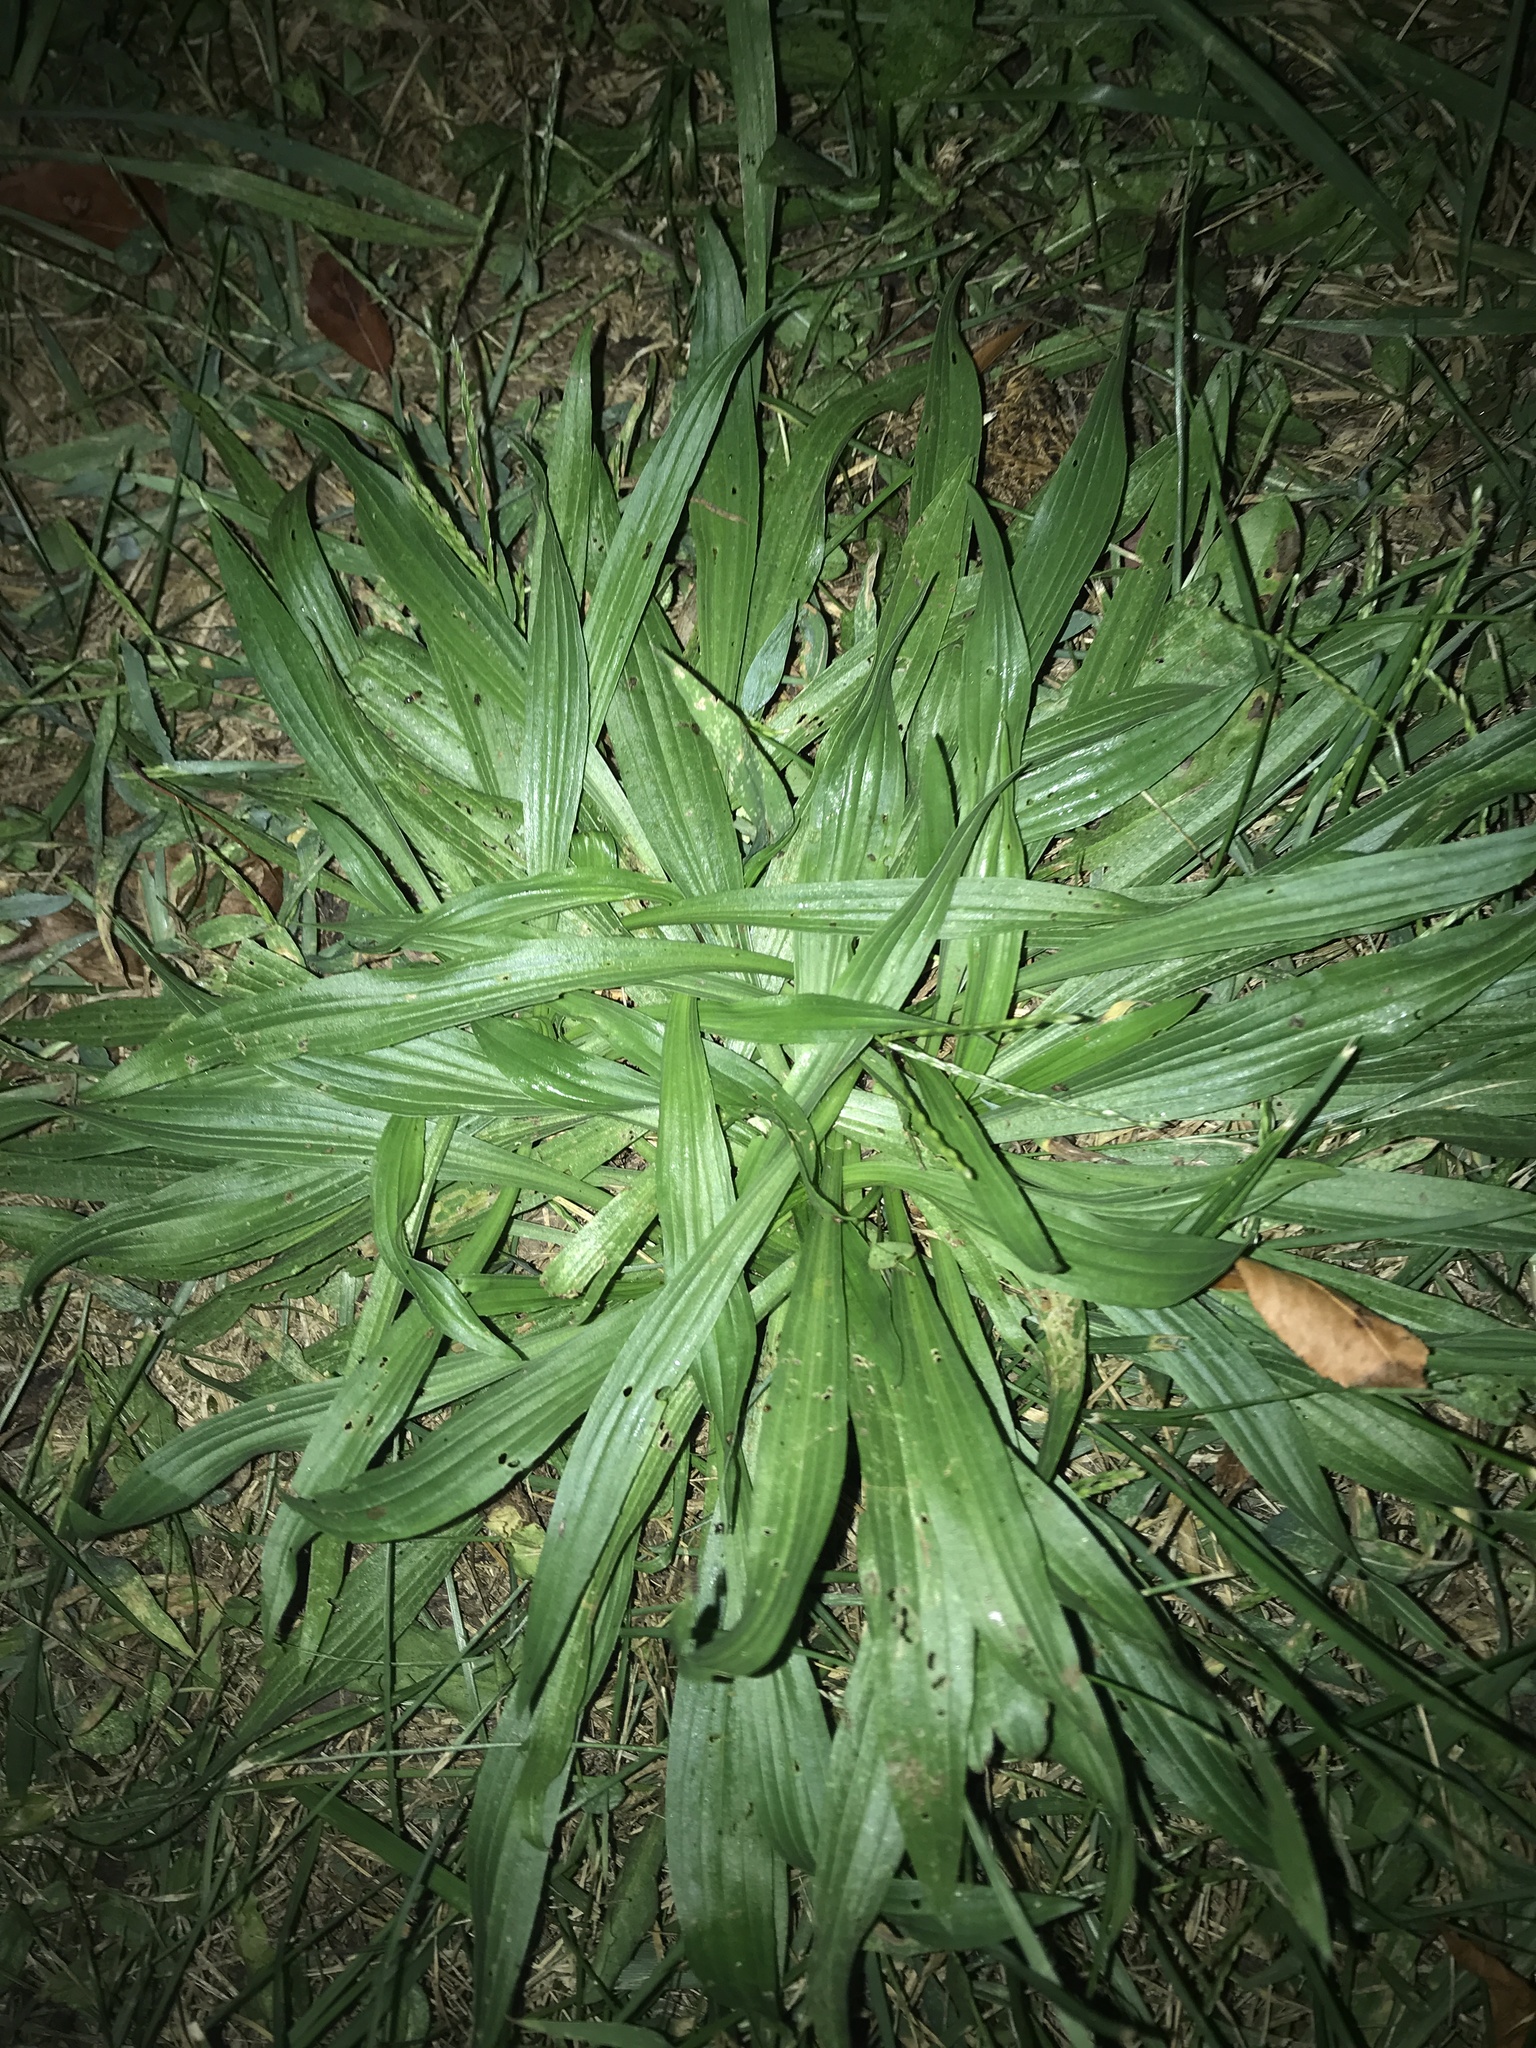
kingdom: Plantae
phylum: Tracheophyta
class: Magnoliopsida
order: Lamiales
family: Plantaginaceae
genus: Plantago
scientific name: Plantago lanceolata
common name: Ribwort plantain
